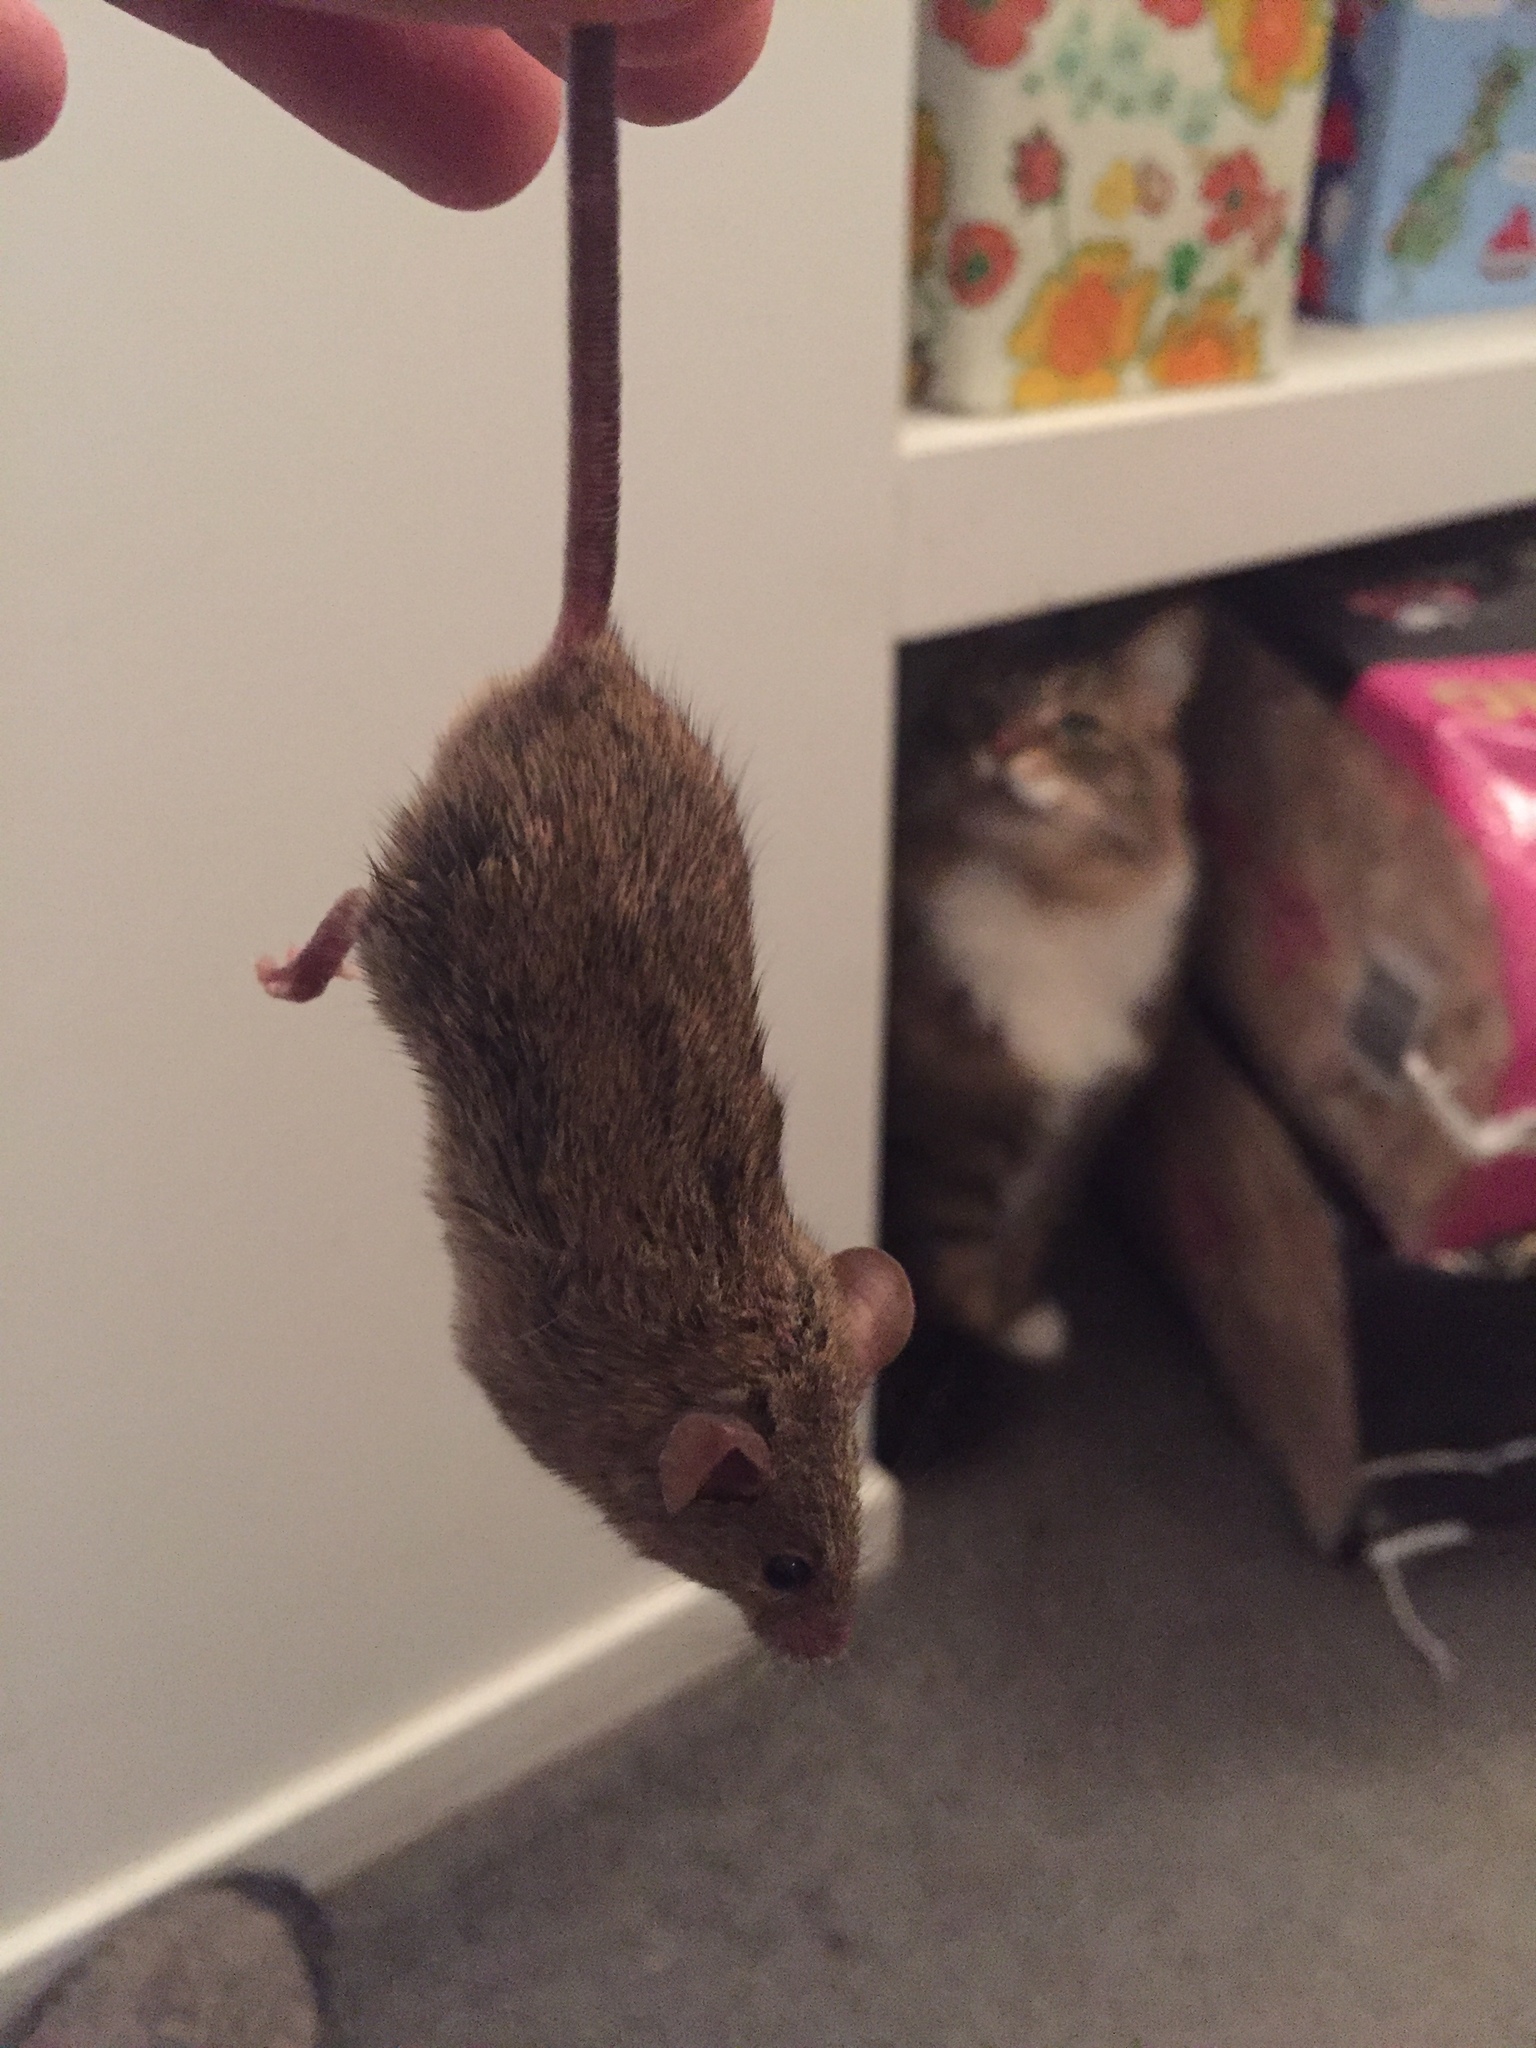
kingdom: Animalia
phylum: Chordata
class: Mammalia
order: Rodentia
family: Muridae
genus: Mus
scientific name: Mus musculus
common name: House mouse
